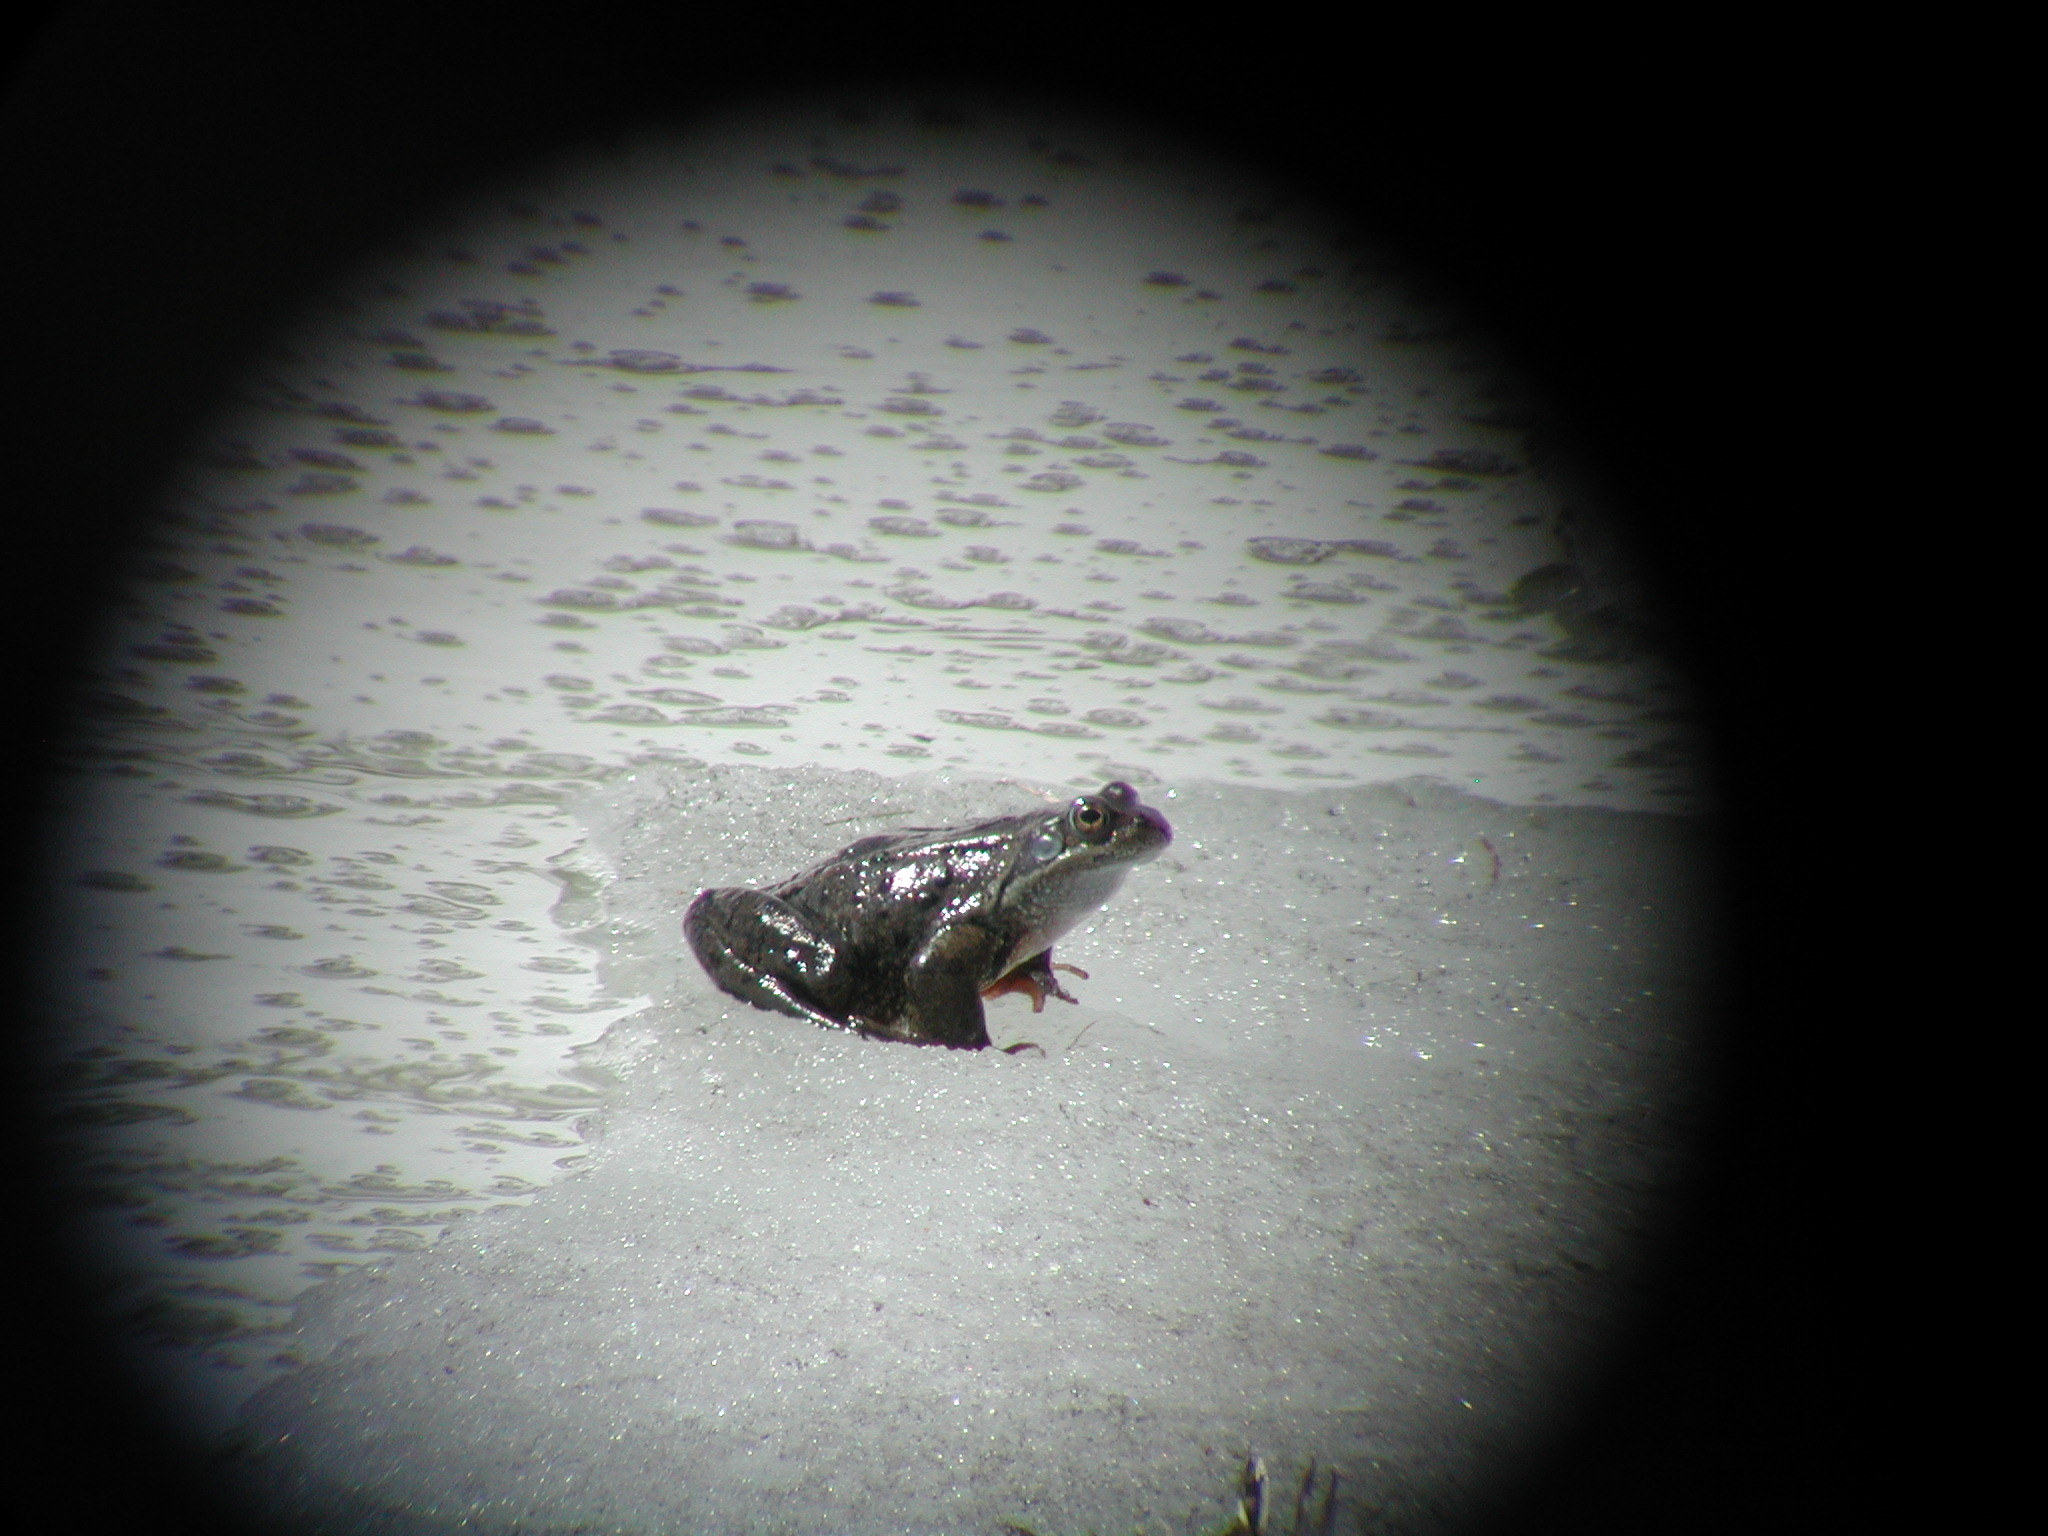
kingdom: Animalia
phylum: Chordata
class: Amphibia
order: Anura
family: Ranidae
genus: Rana
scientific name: Rana temporaria
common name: Common frog
